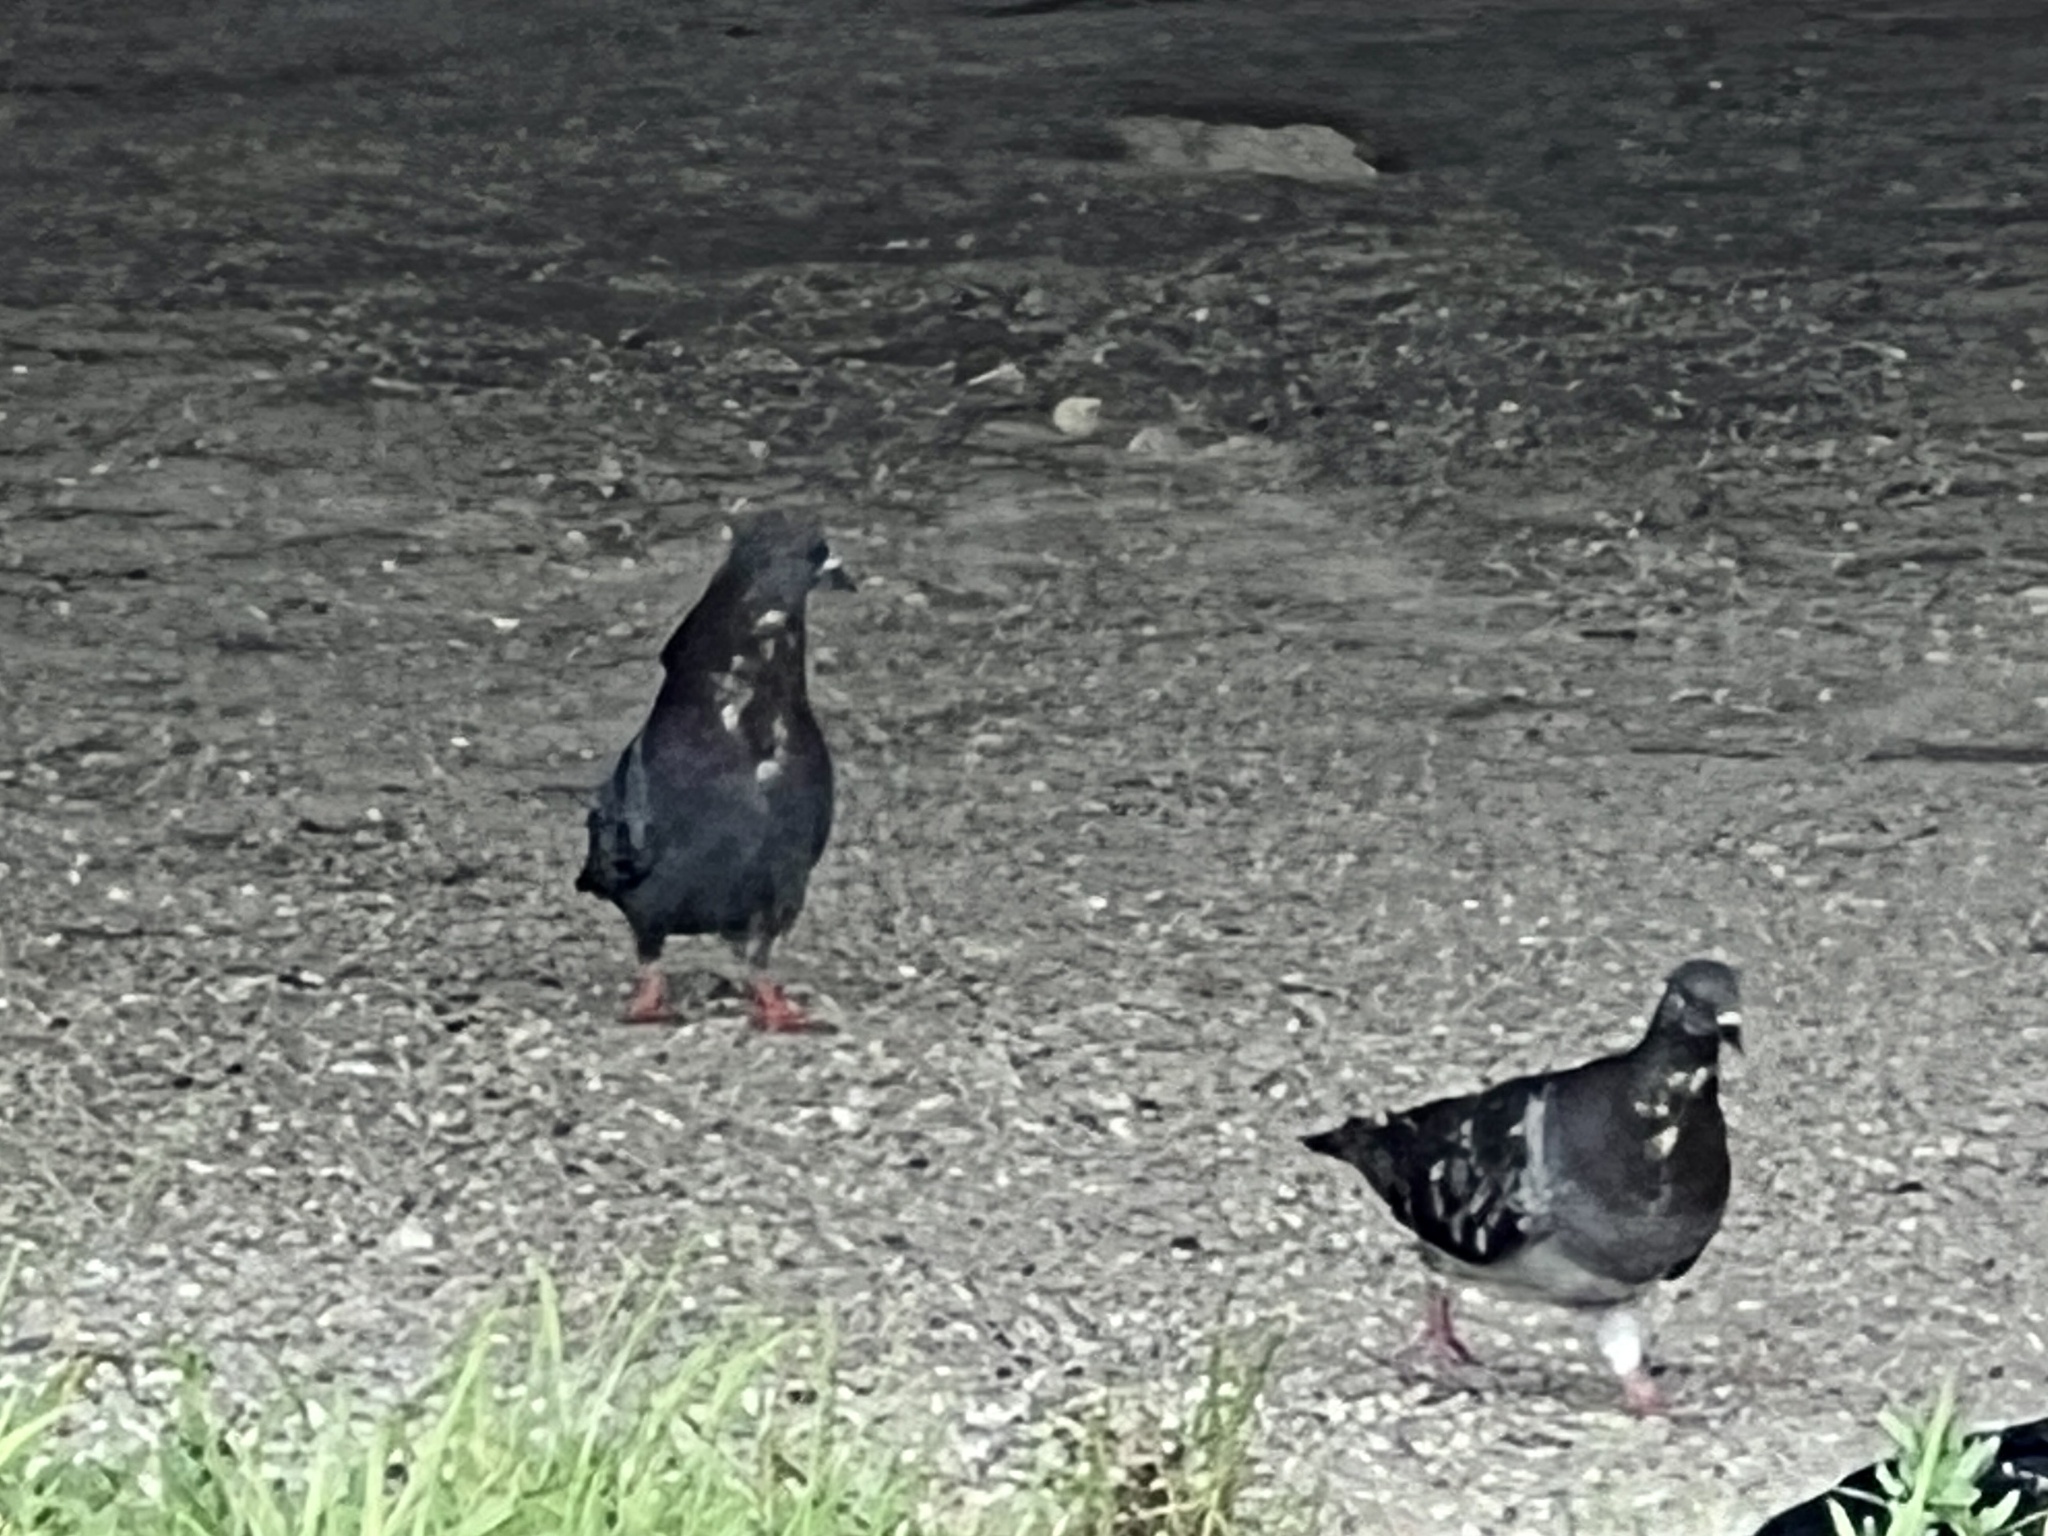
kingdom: Animalia
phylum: Chordata
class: Aves
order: Columbiformes
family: Columbidae
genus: Columba
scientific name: Columba livia
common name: Rock pigeon
